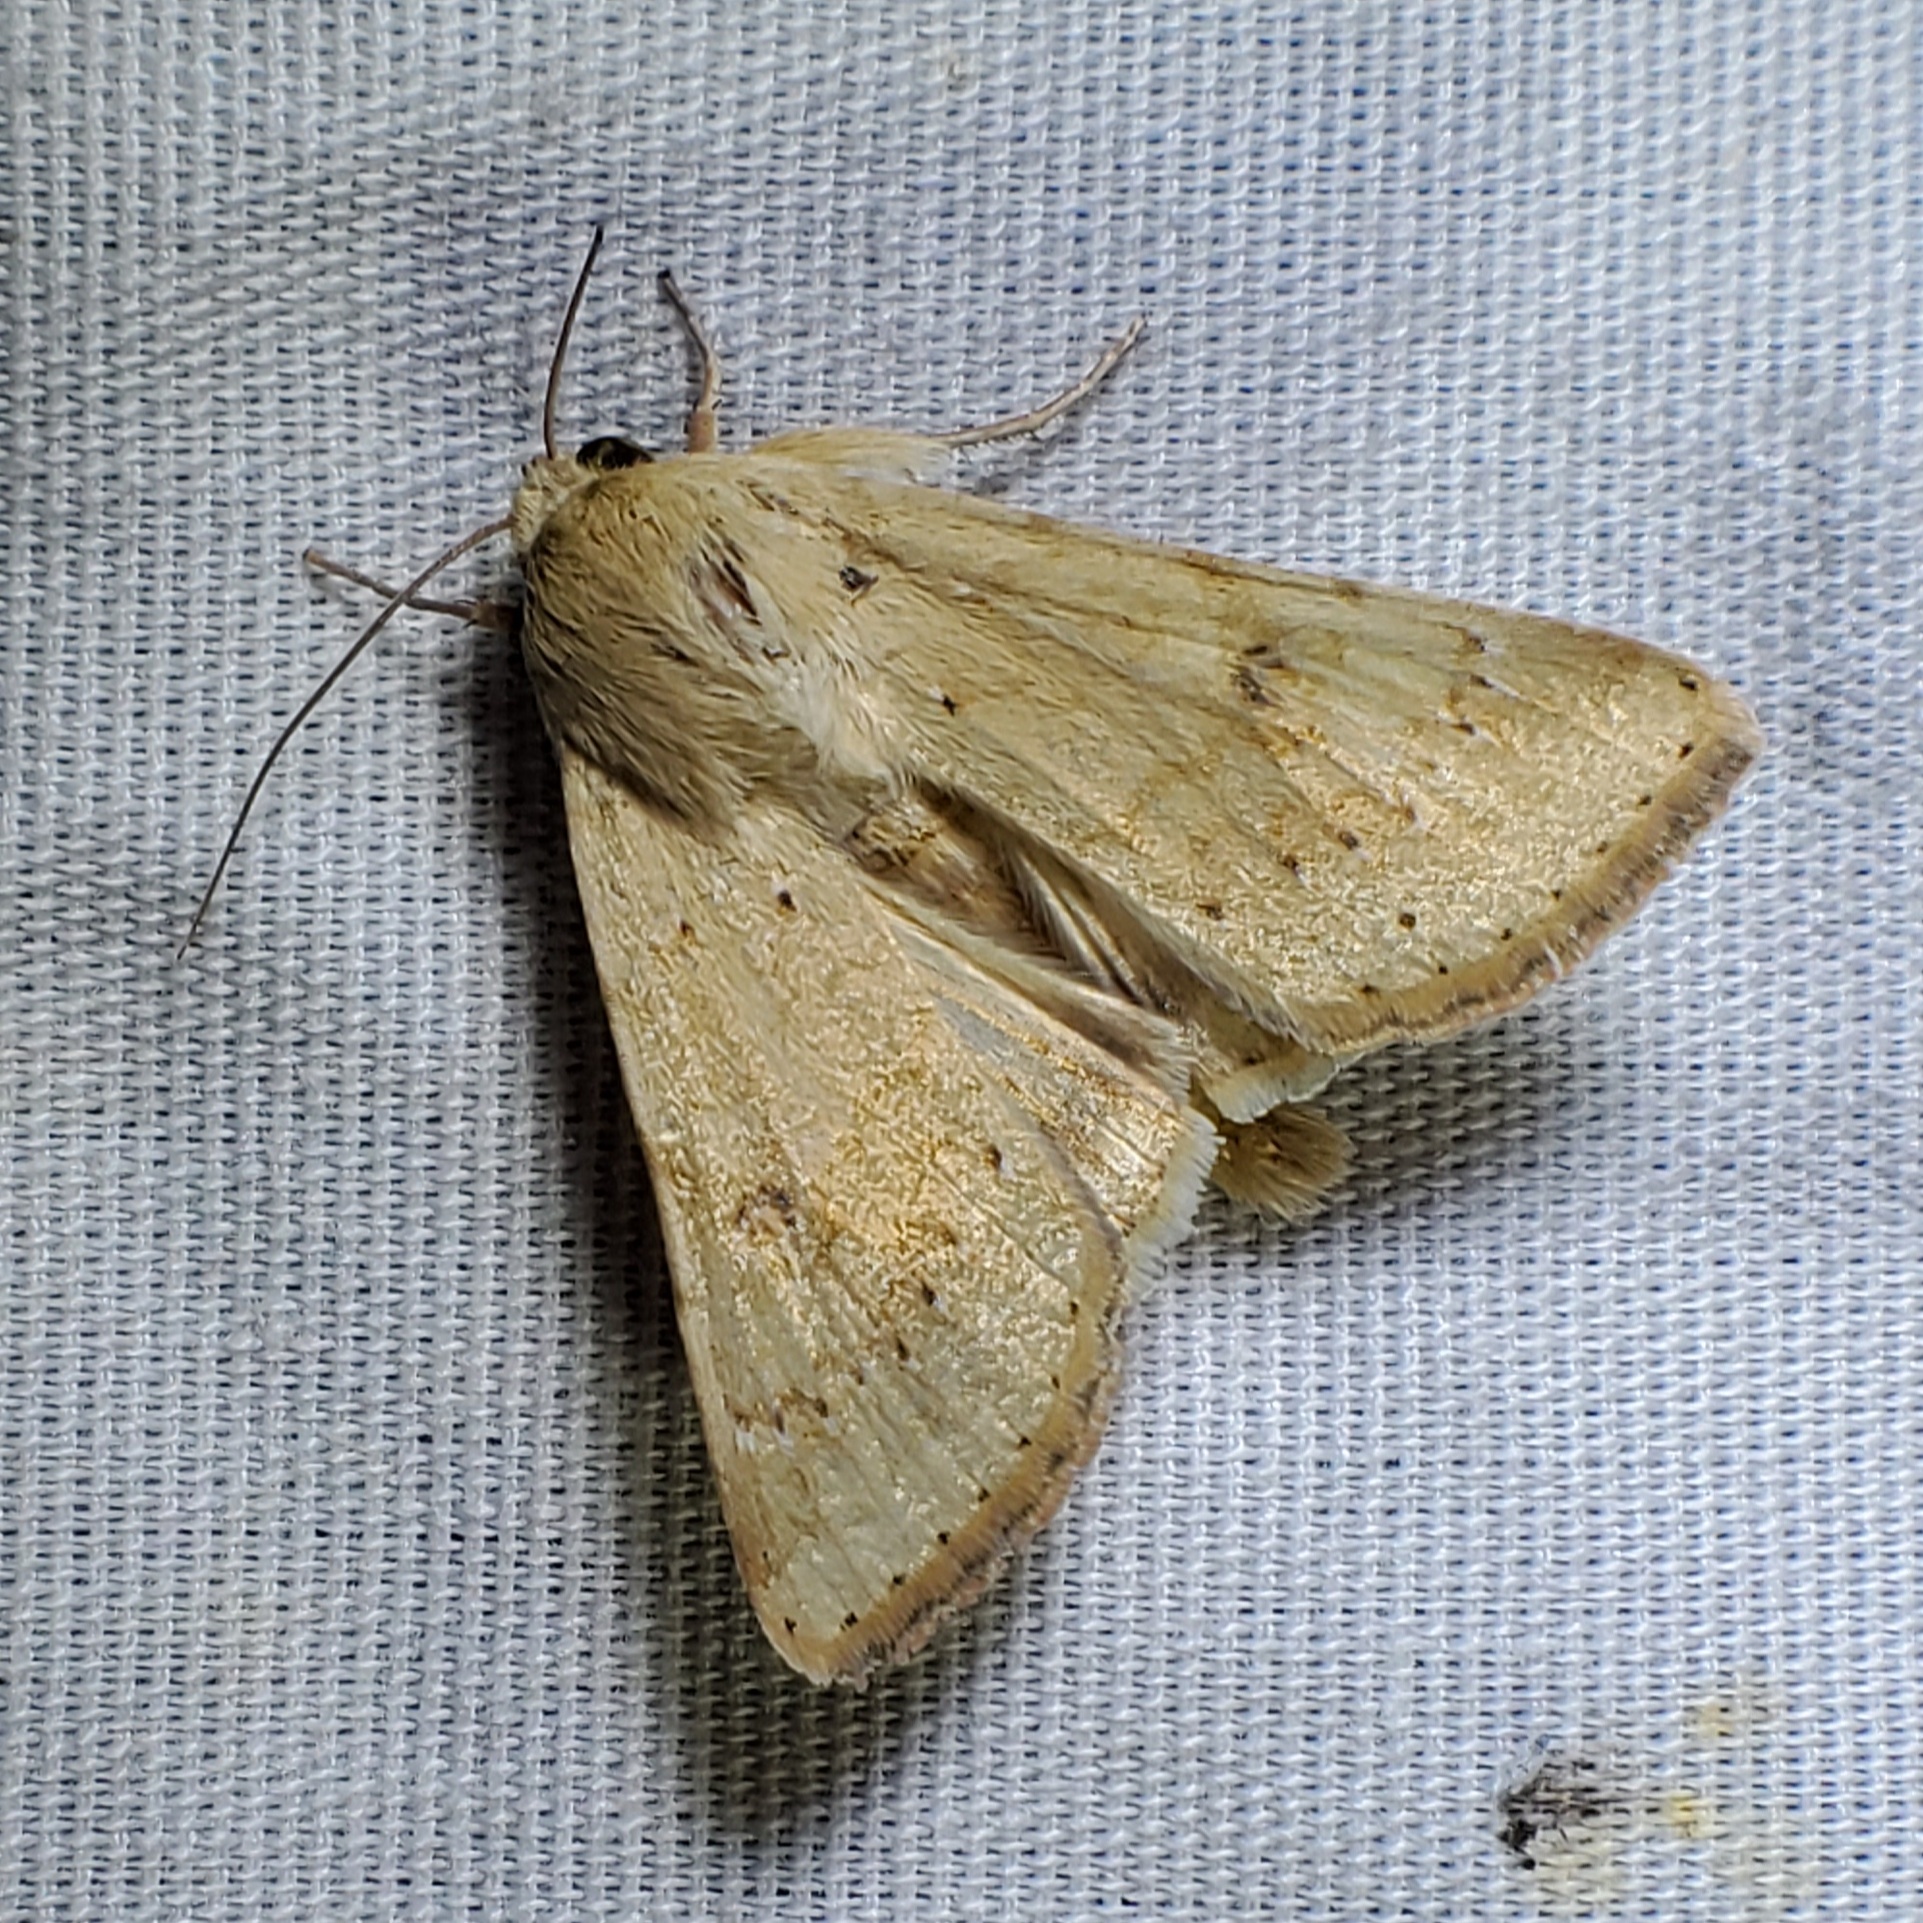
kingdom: Animalia
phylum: Arthropoda
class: Insecta
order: Lepidoptera
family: Noctuidae
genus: Helicoverpa
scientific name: Helicoverpa zea
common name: Bollworm
